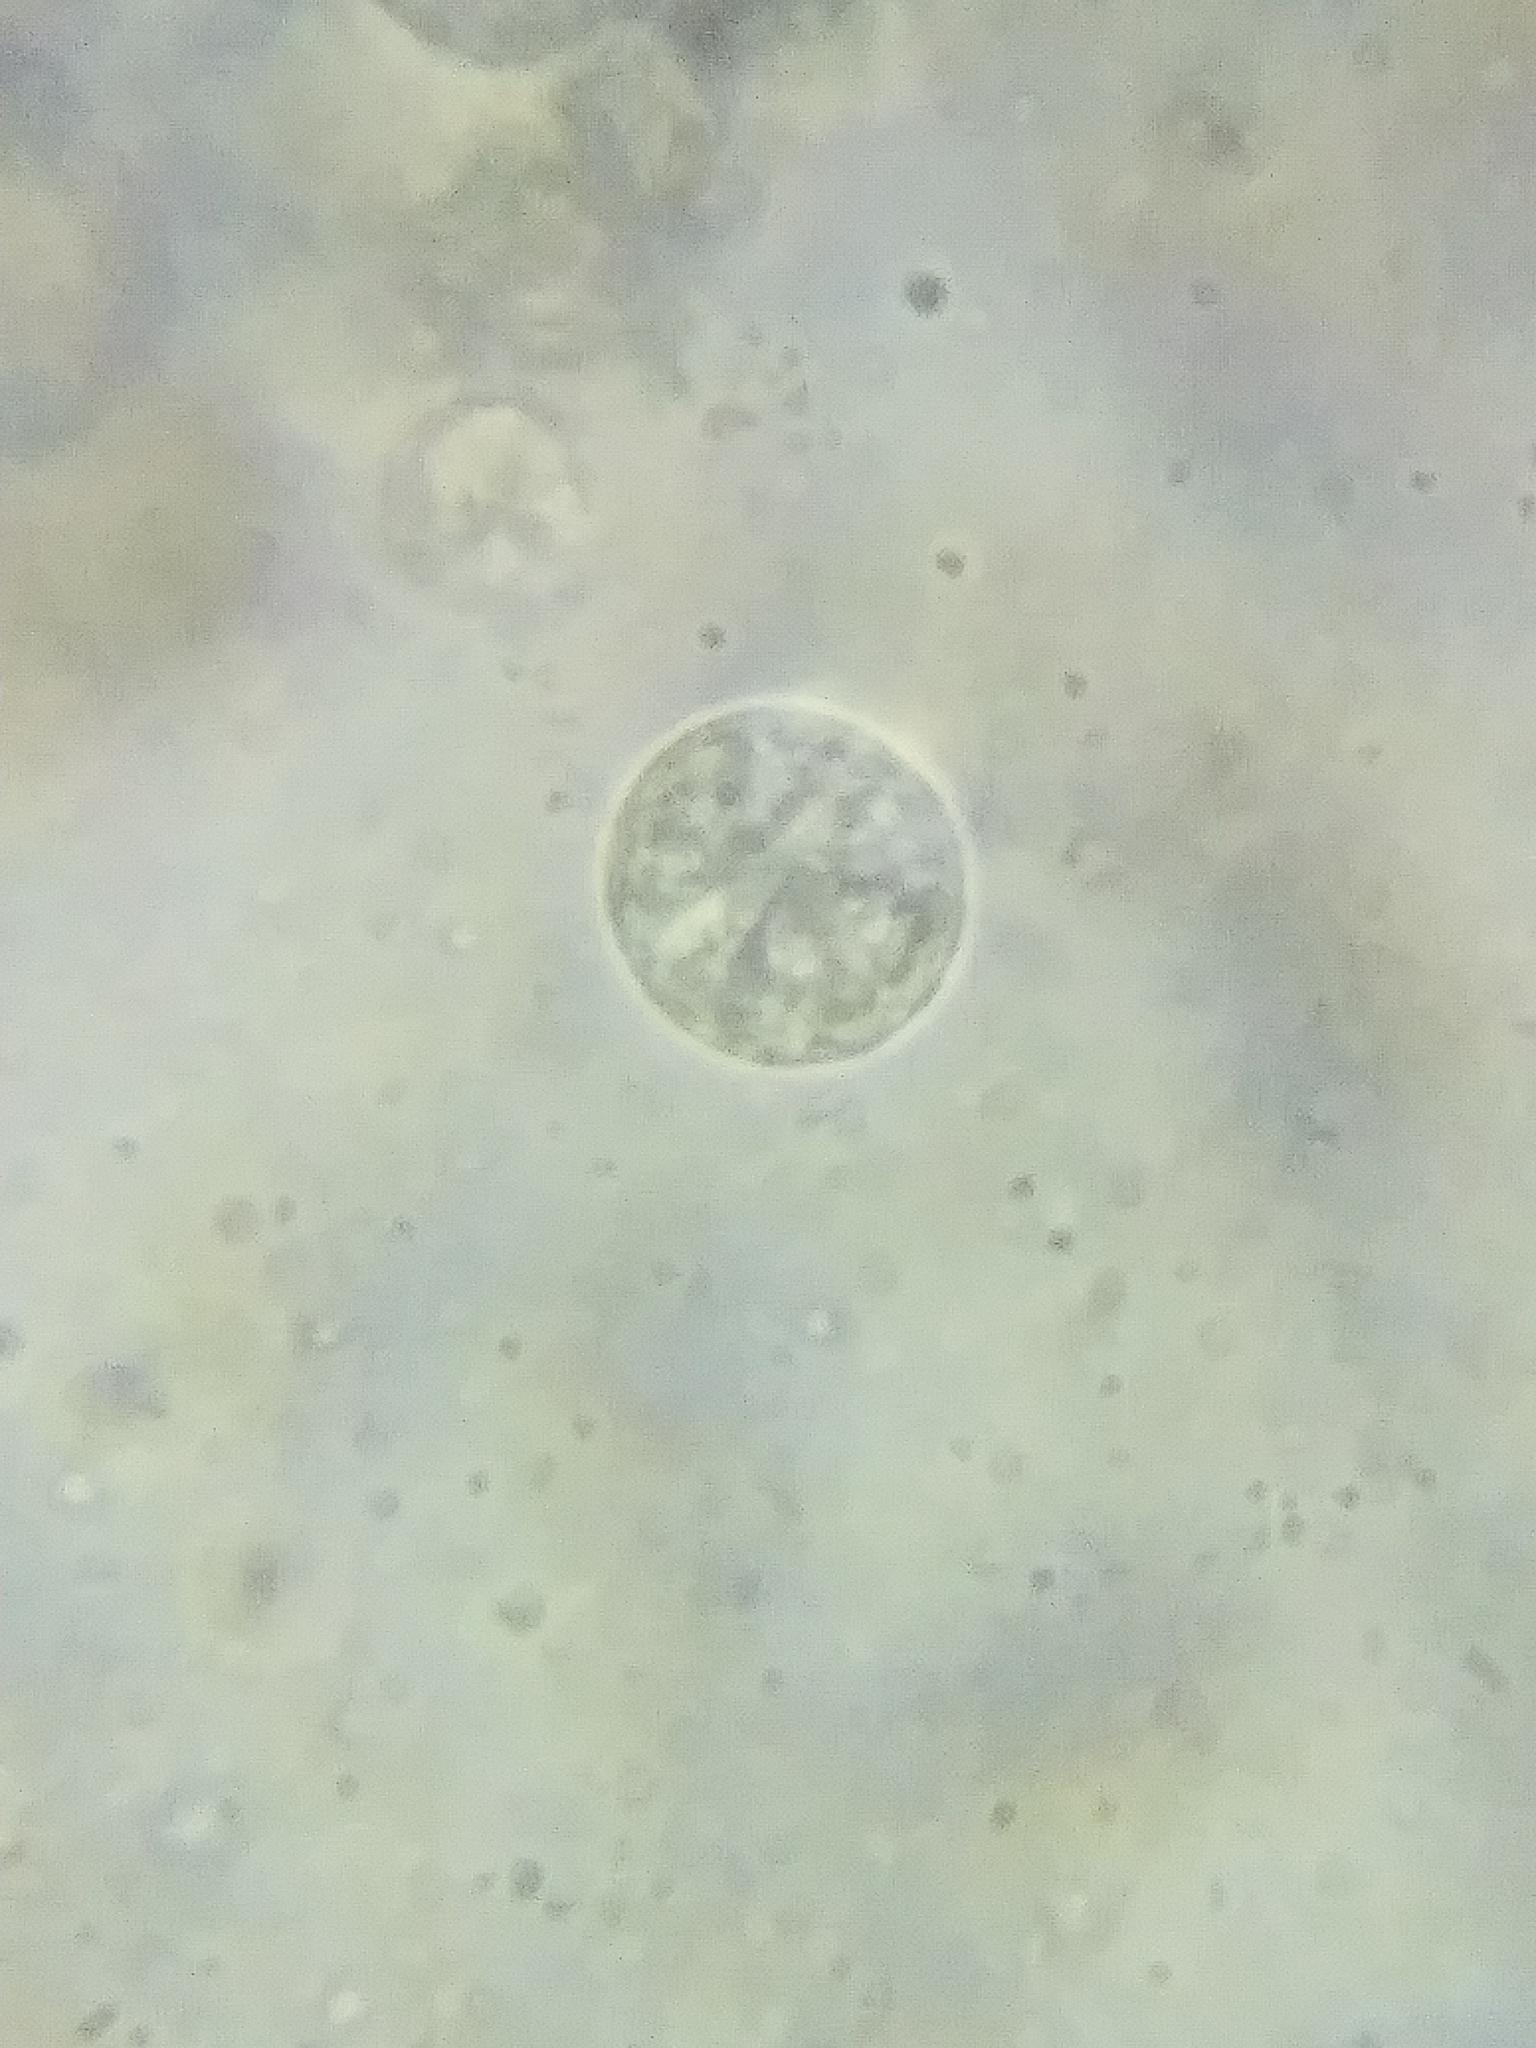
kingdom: Fungi
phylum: Basidiomycota
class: Agaricomycetes
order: Agaricales
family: Amanitaceae
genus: Amanita
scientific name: Amanita rhacopus
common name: Shaggy legged ringless amanita
